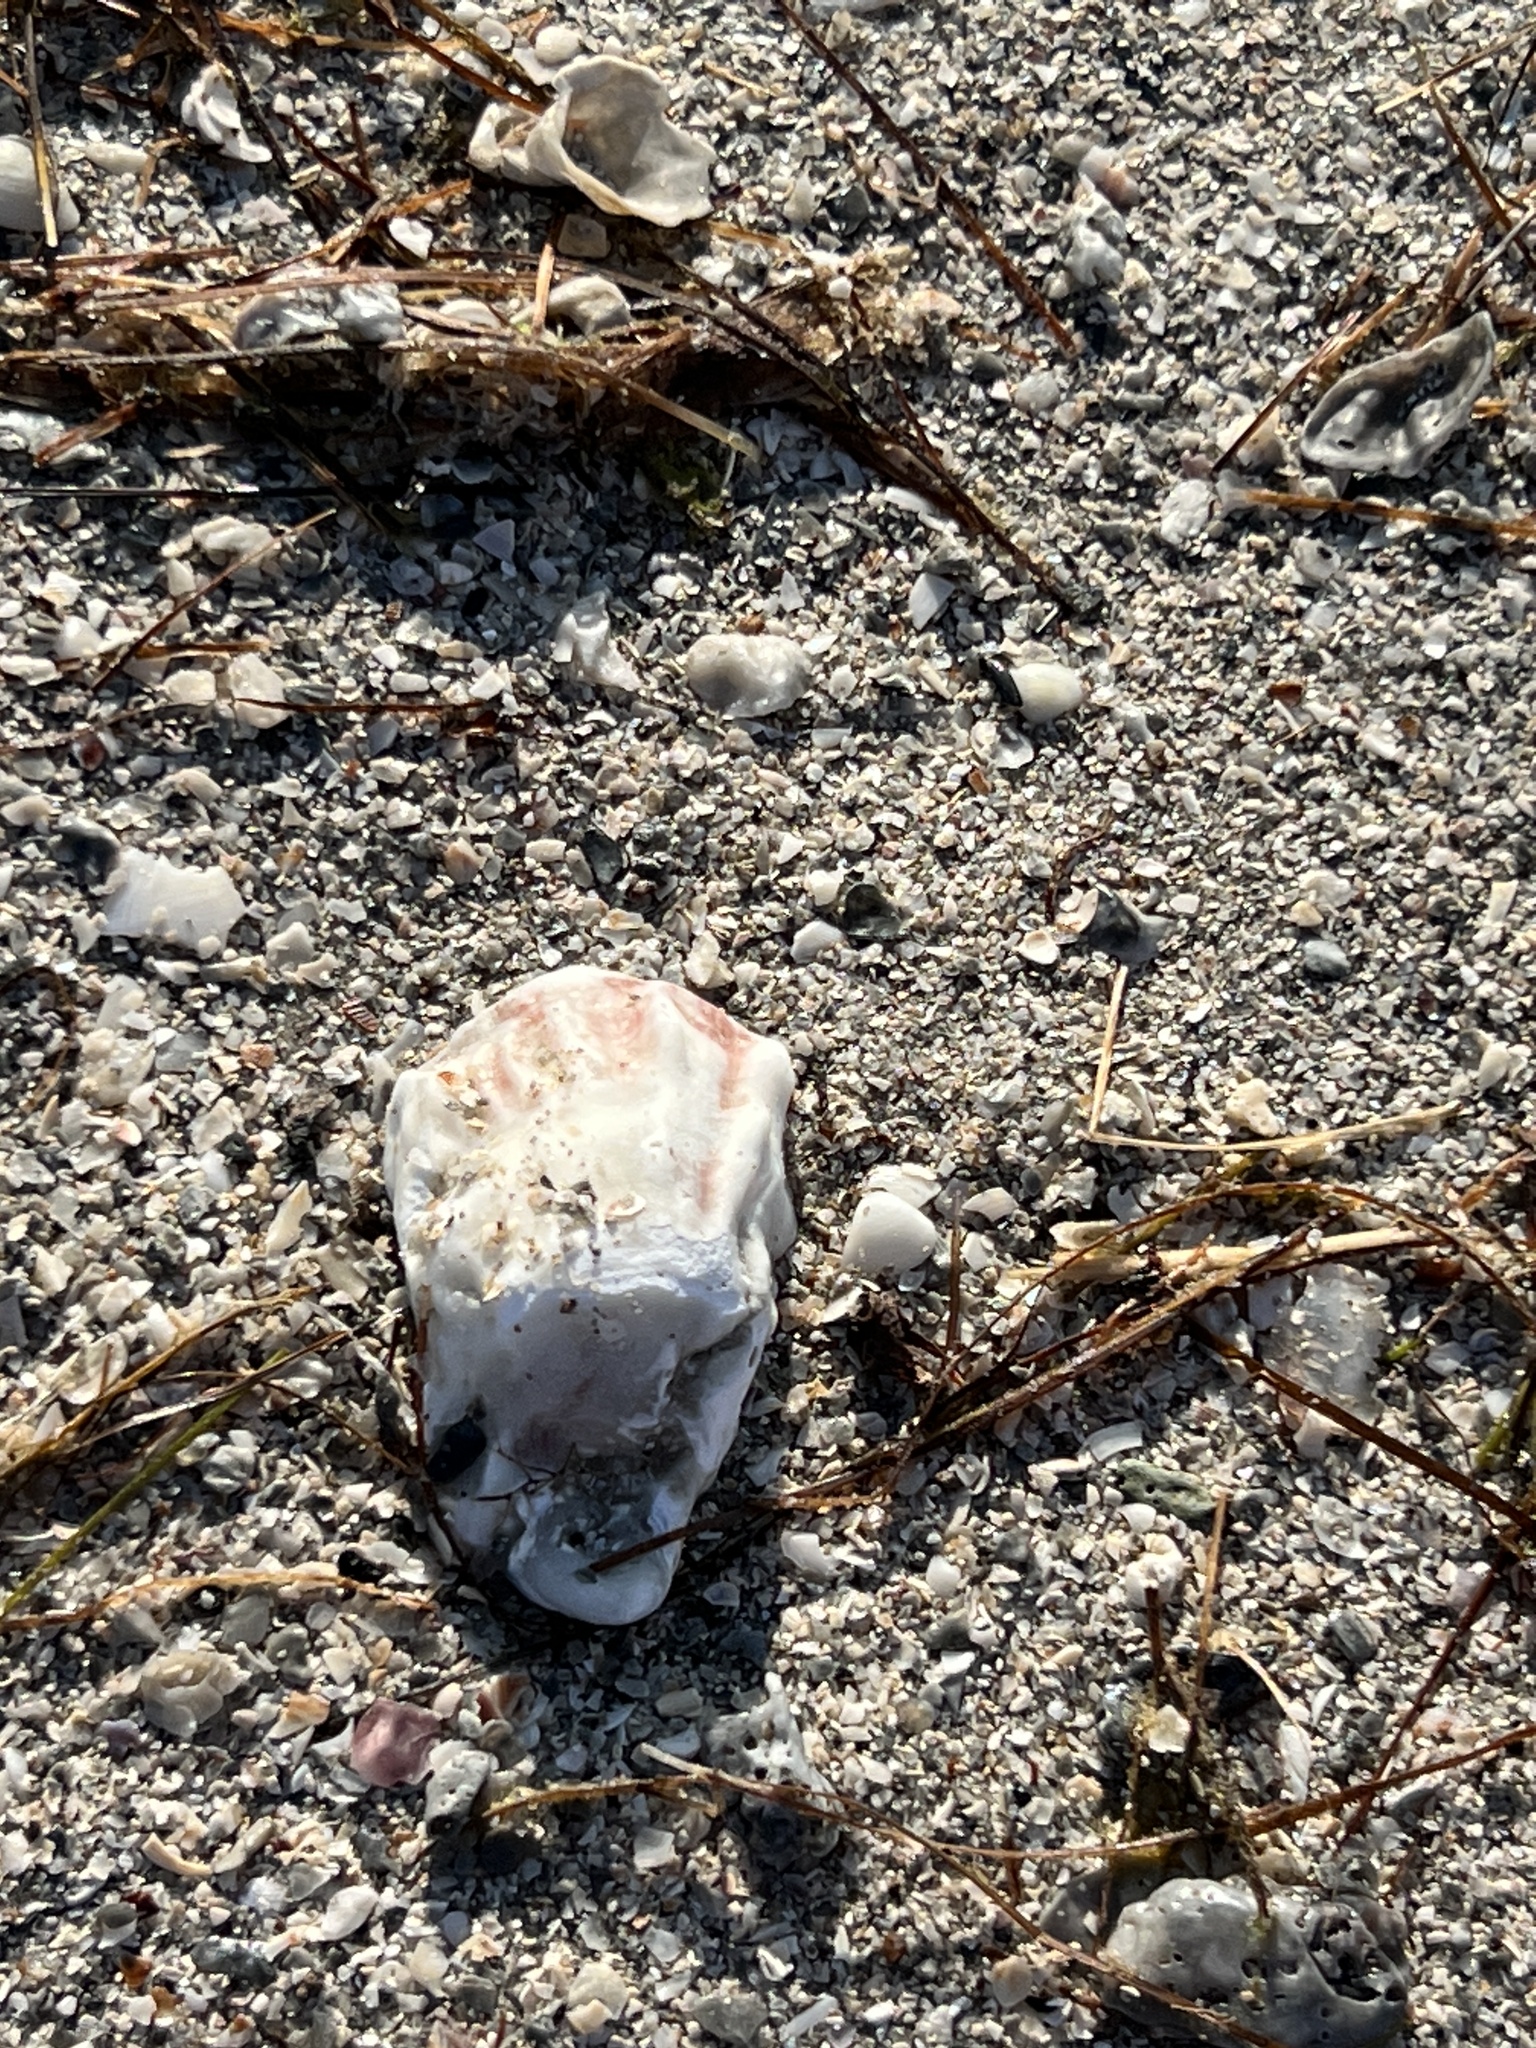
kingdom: Animalia
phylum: Mollusca
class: Bivalvia
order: Ostreida
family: Ostreidae
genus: Crassostrea
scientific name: Crassostrea virginica
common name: American oyster
